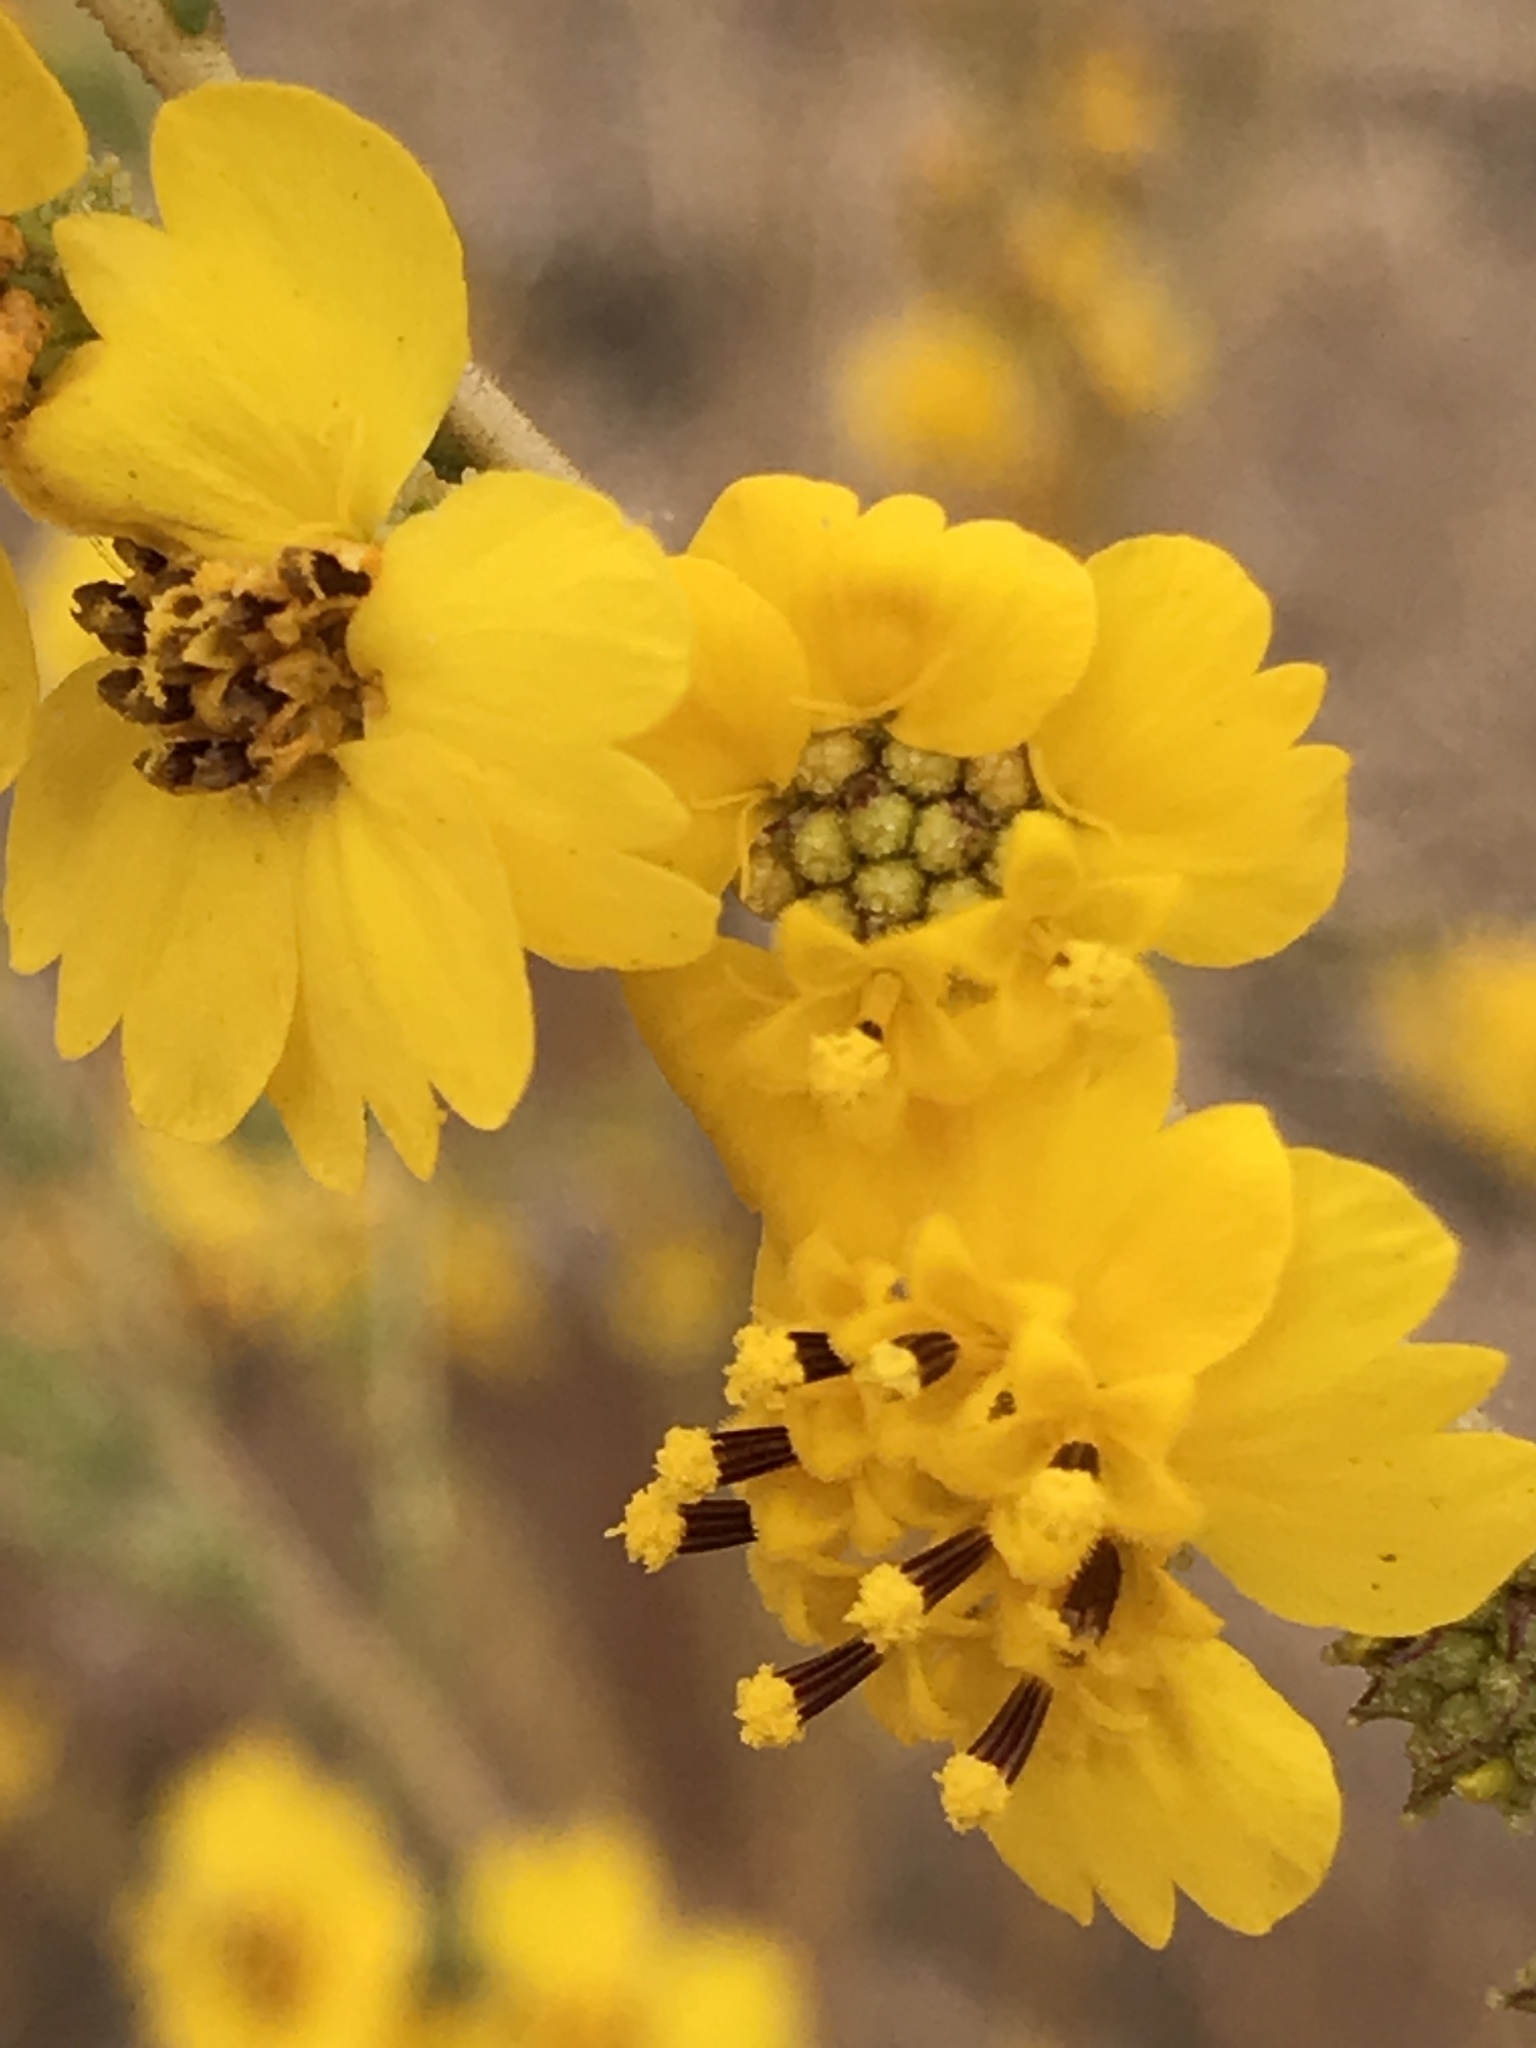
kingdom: Plantae
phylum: Tracheophyta
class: Magnoliopsida
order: Asterales
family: Asteraceae
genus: Holocarpha
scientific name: Holocarpha virgata
